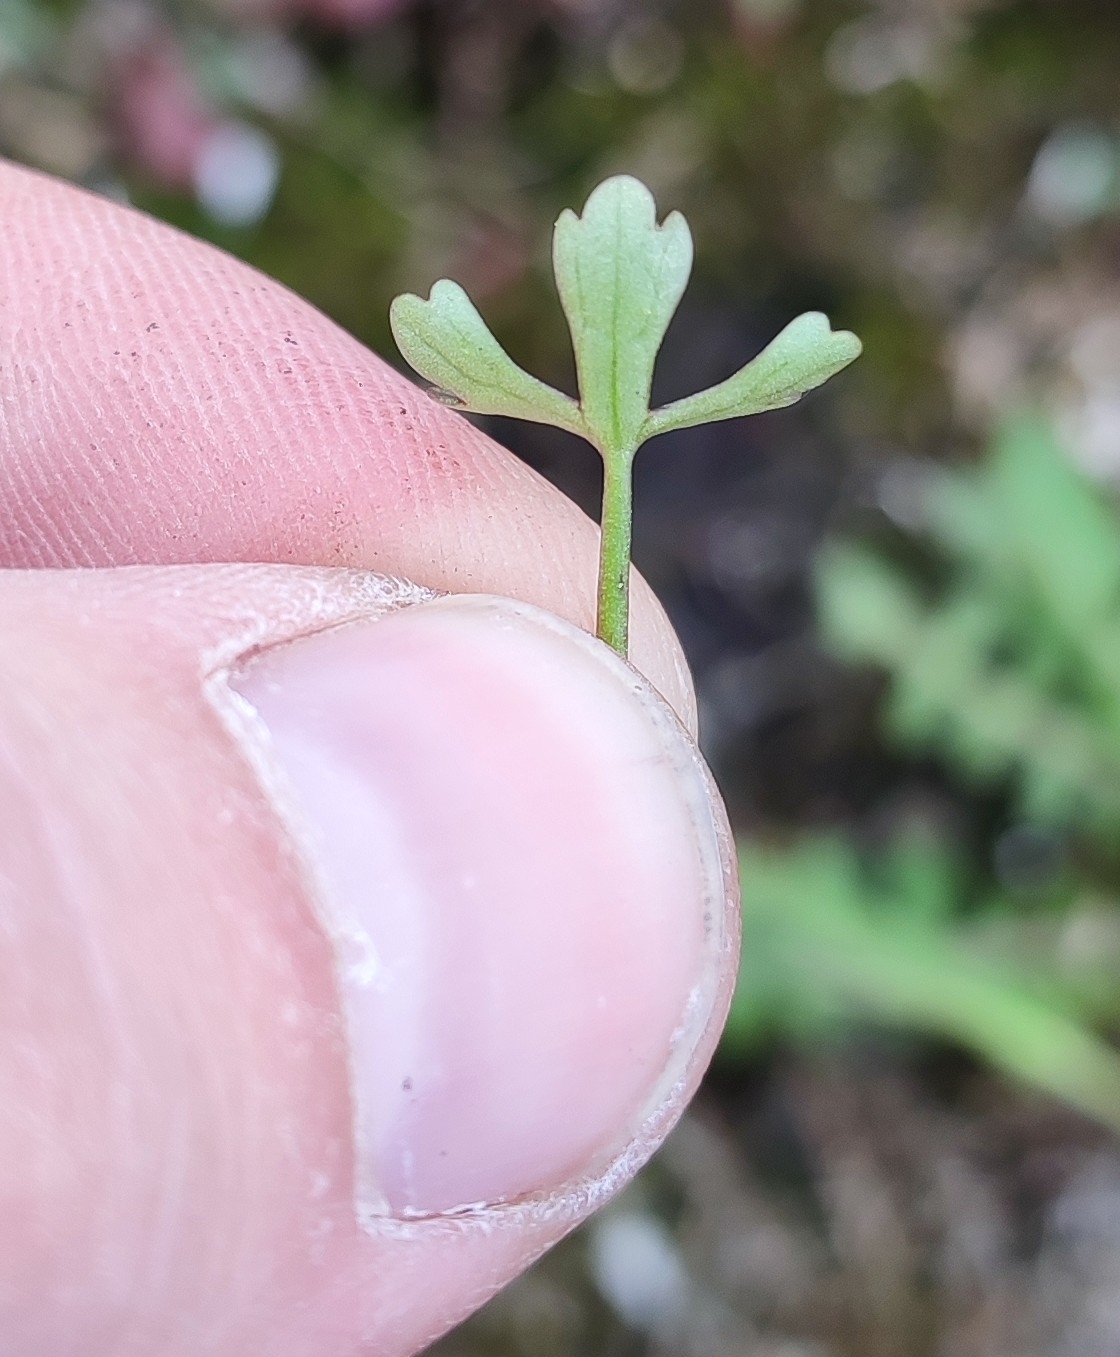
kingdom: Plantae
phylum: Tracheophyta
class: Magnoliopsida
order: Ranunculales
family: Ranunculaceae
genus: Ranunculus
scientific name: Ranunculus sceleratus
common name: Celery-leaved buttercup
